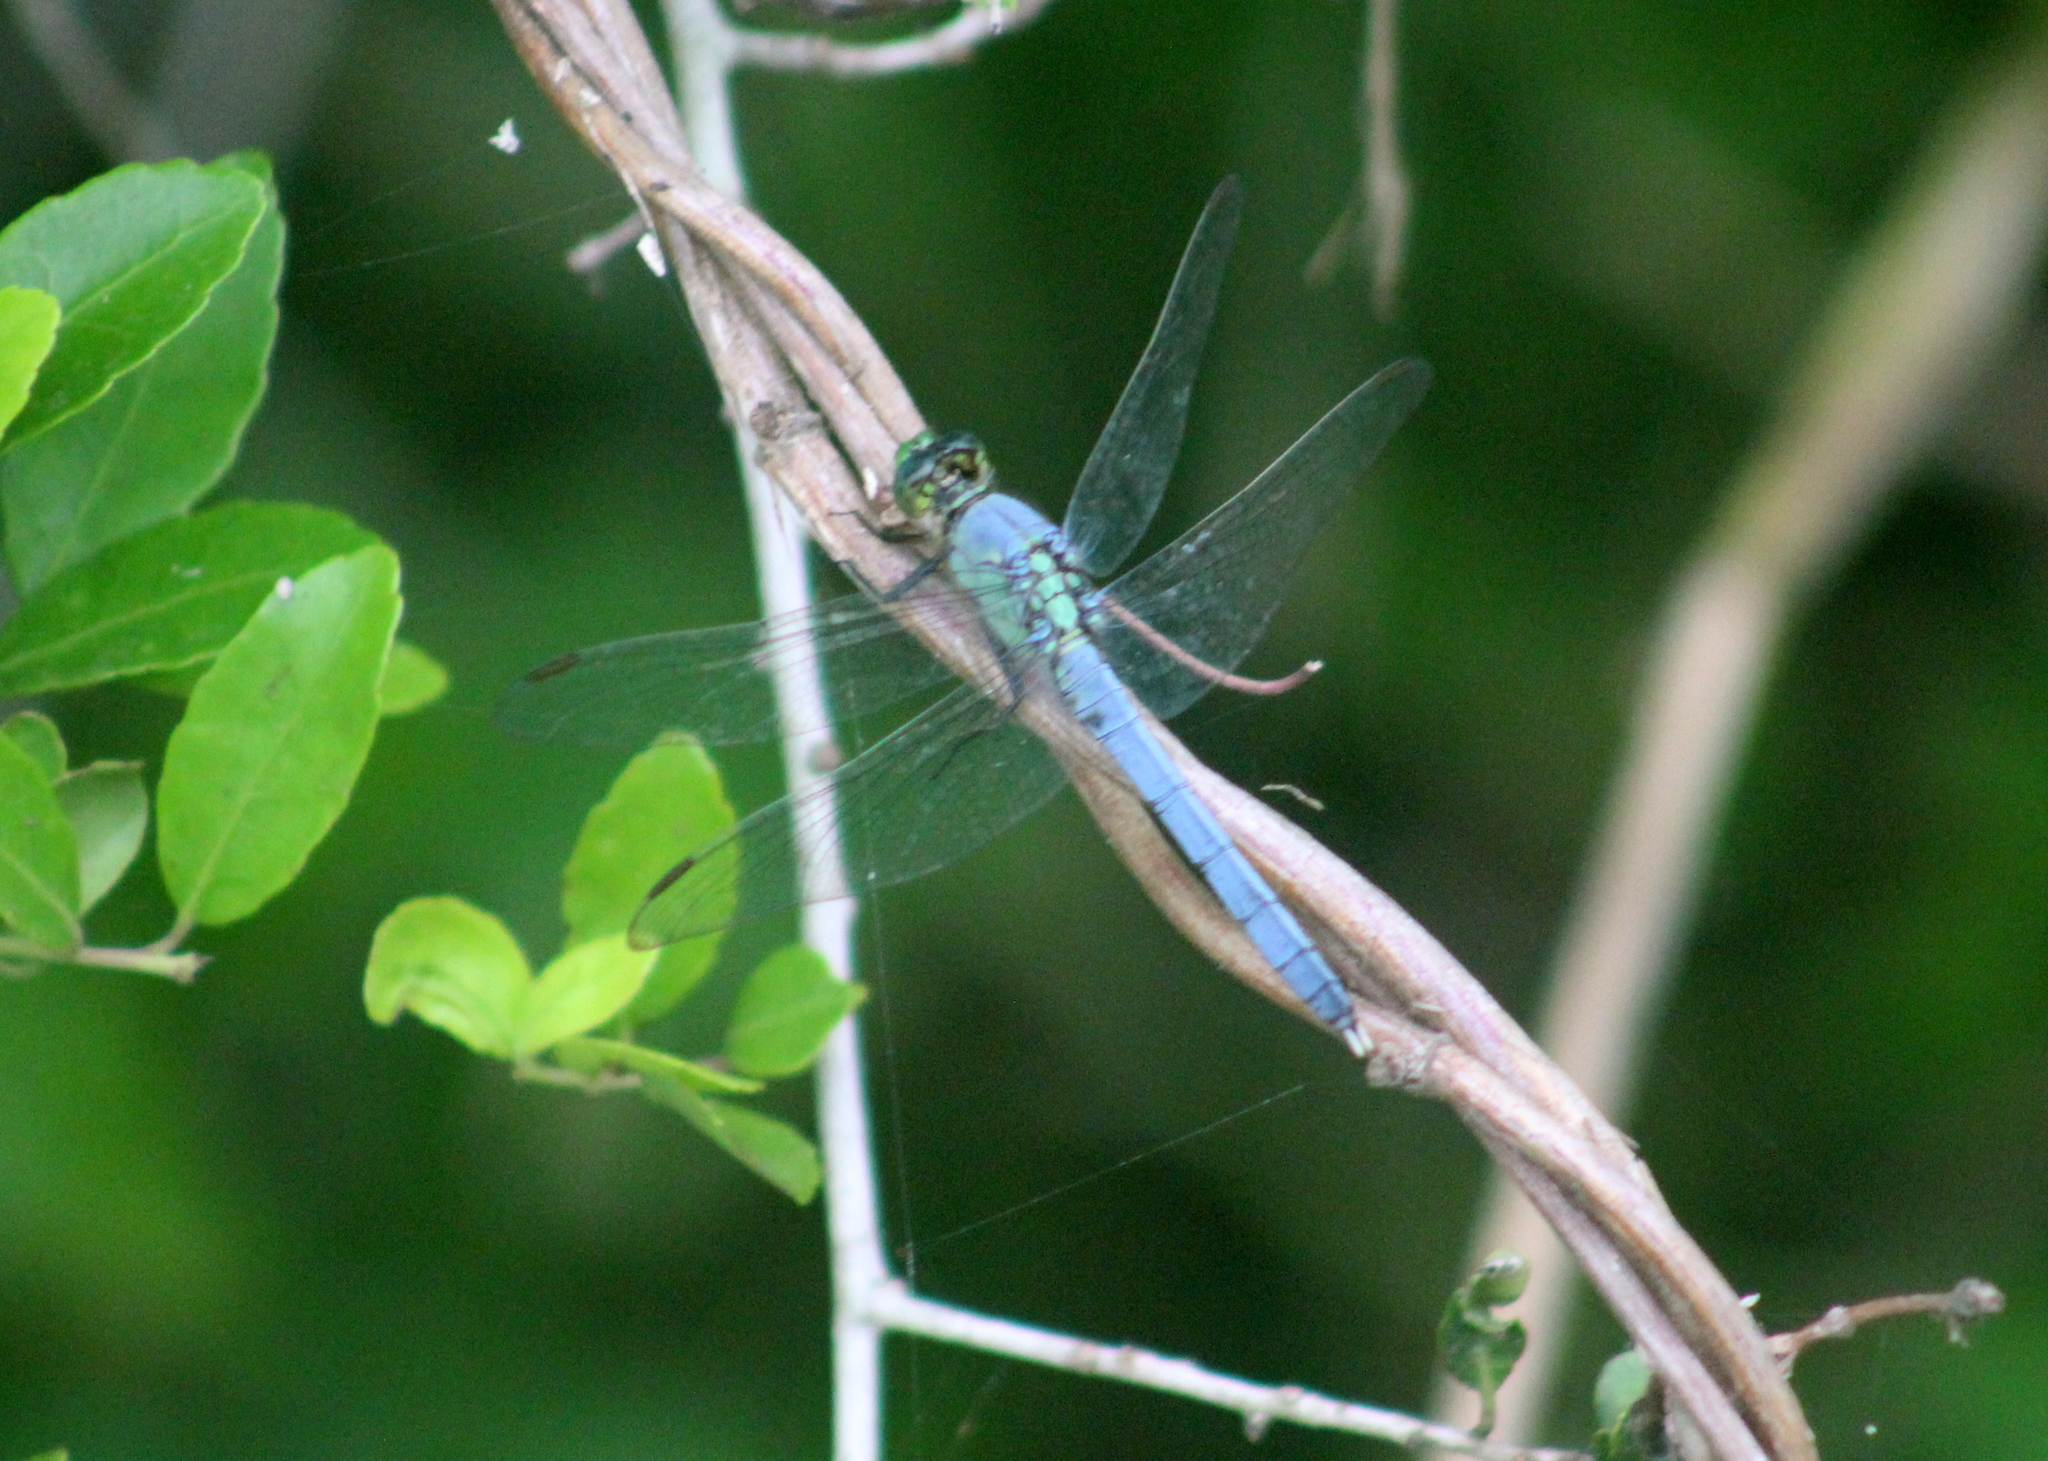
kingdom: Animalia
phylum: Arthropoda
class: Insecta
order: Odonata
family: Libellulidae
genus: Erythemis
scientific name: Erythemis simplicicollis
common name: Eastern pondhawk
